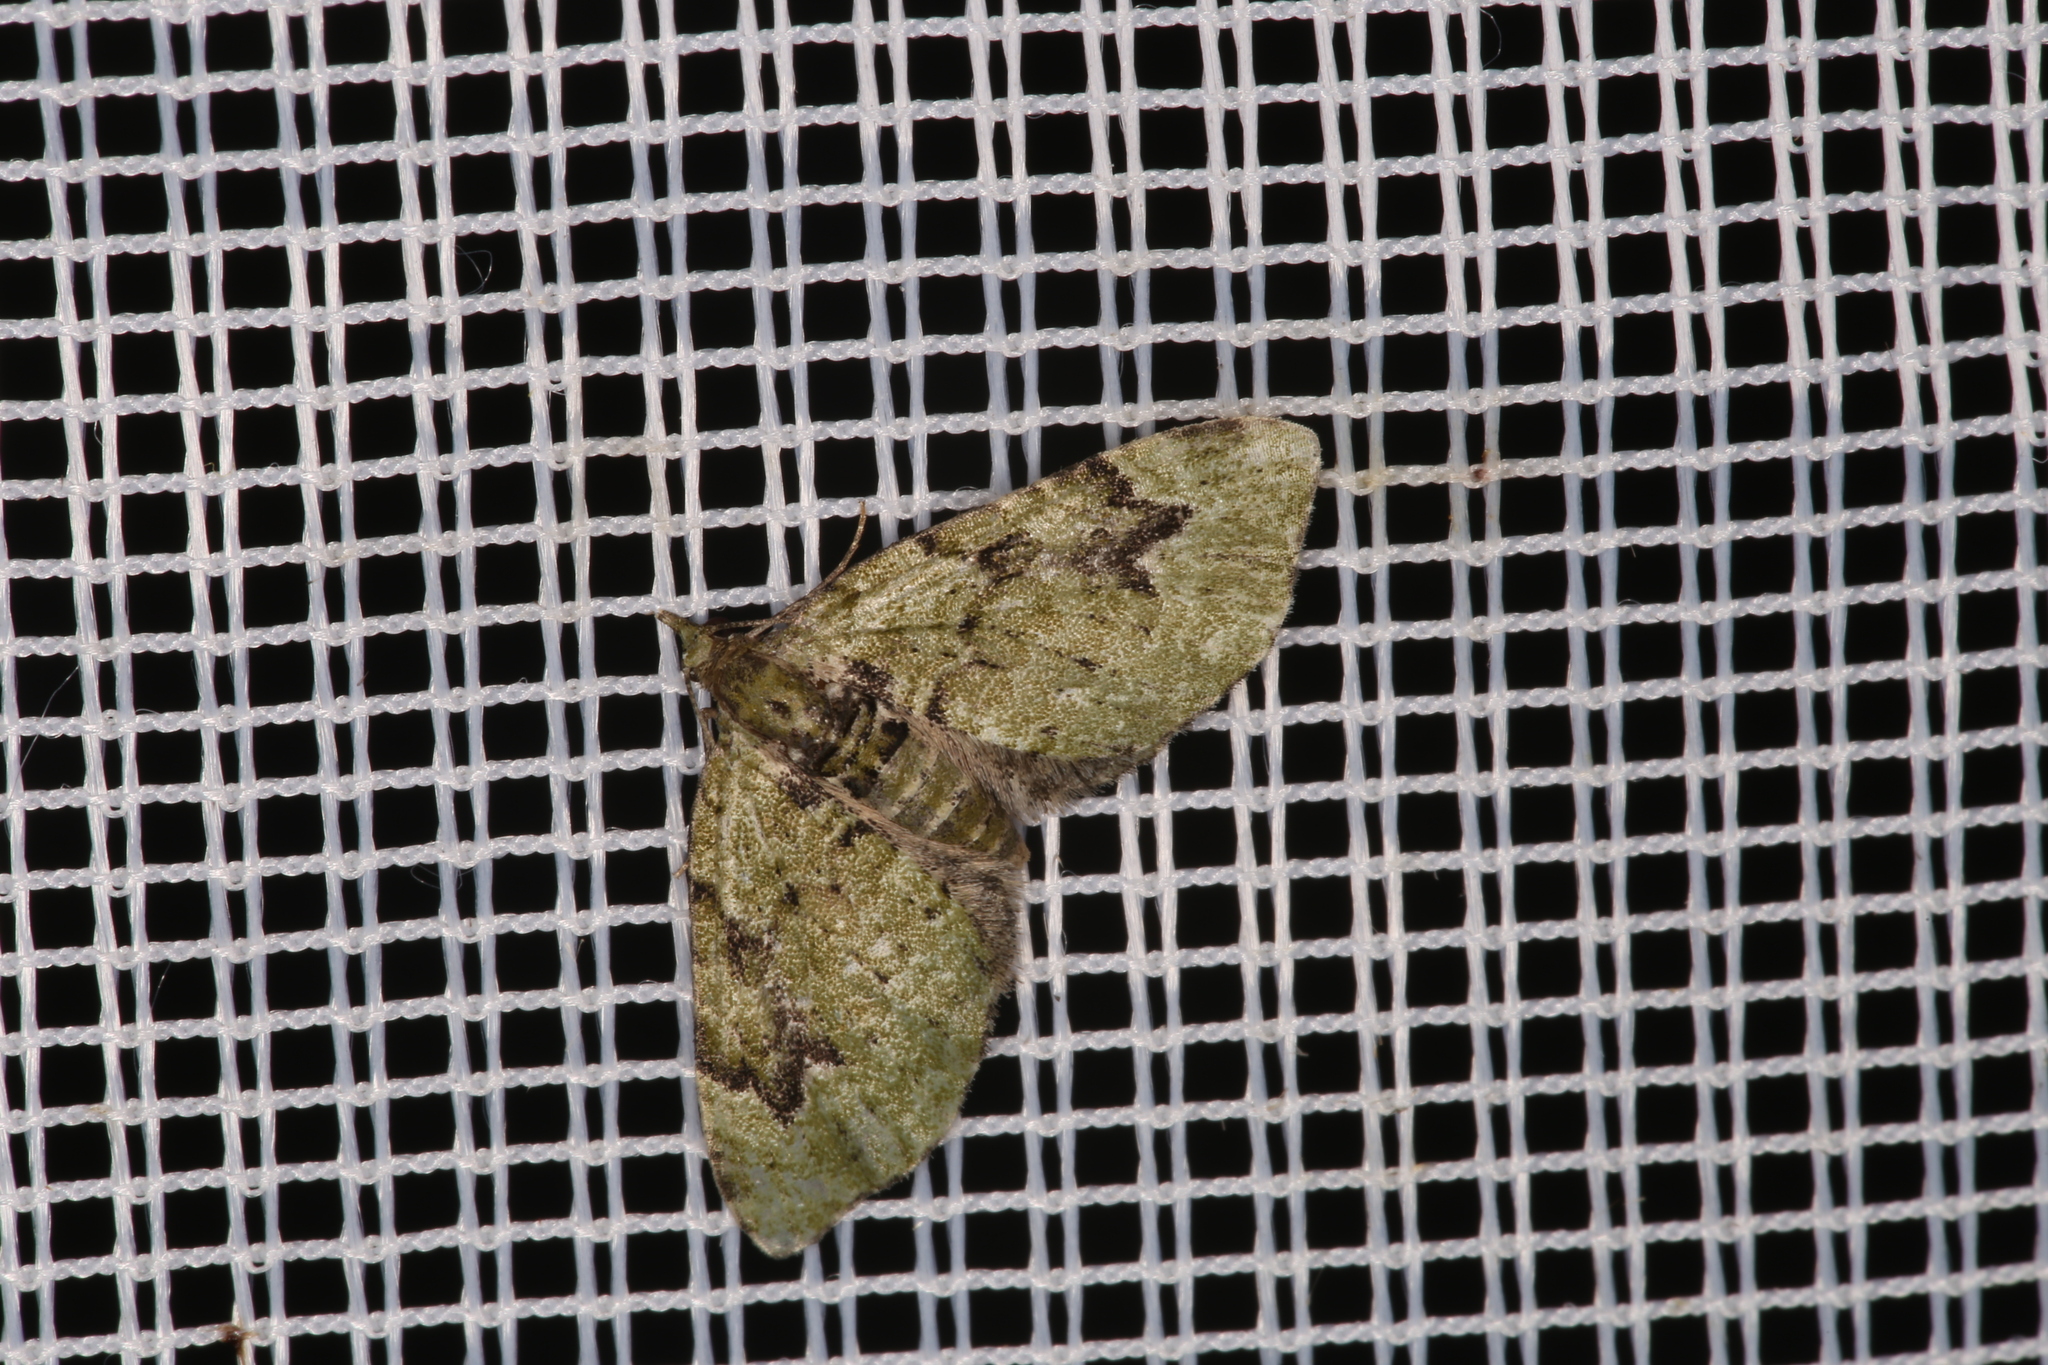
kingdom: Animalia
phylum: Arthropoda
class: Insecta
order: Lepidoptera
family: Geometridae
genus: Chloroclystis
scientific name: Chloroclystis v-ata
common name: V-pug
